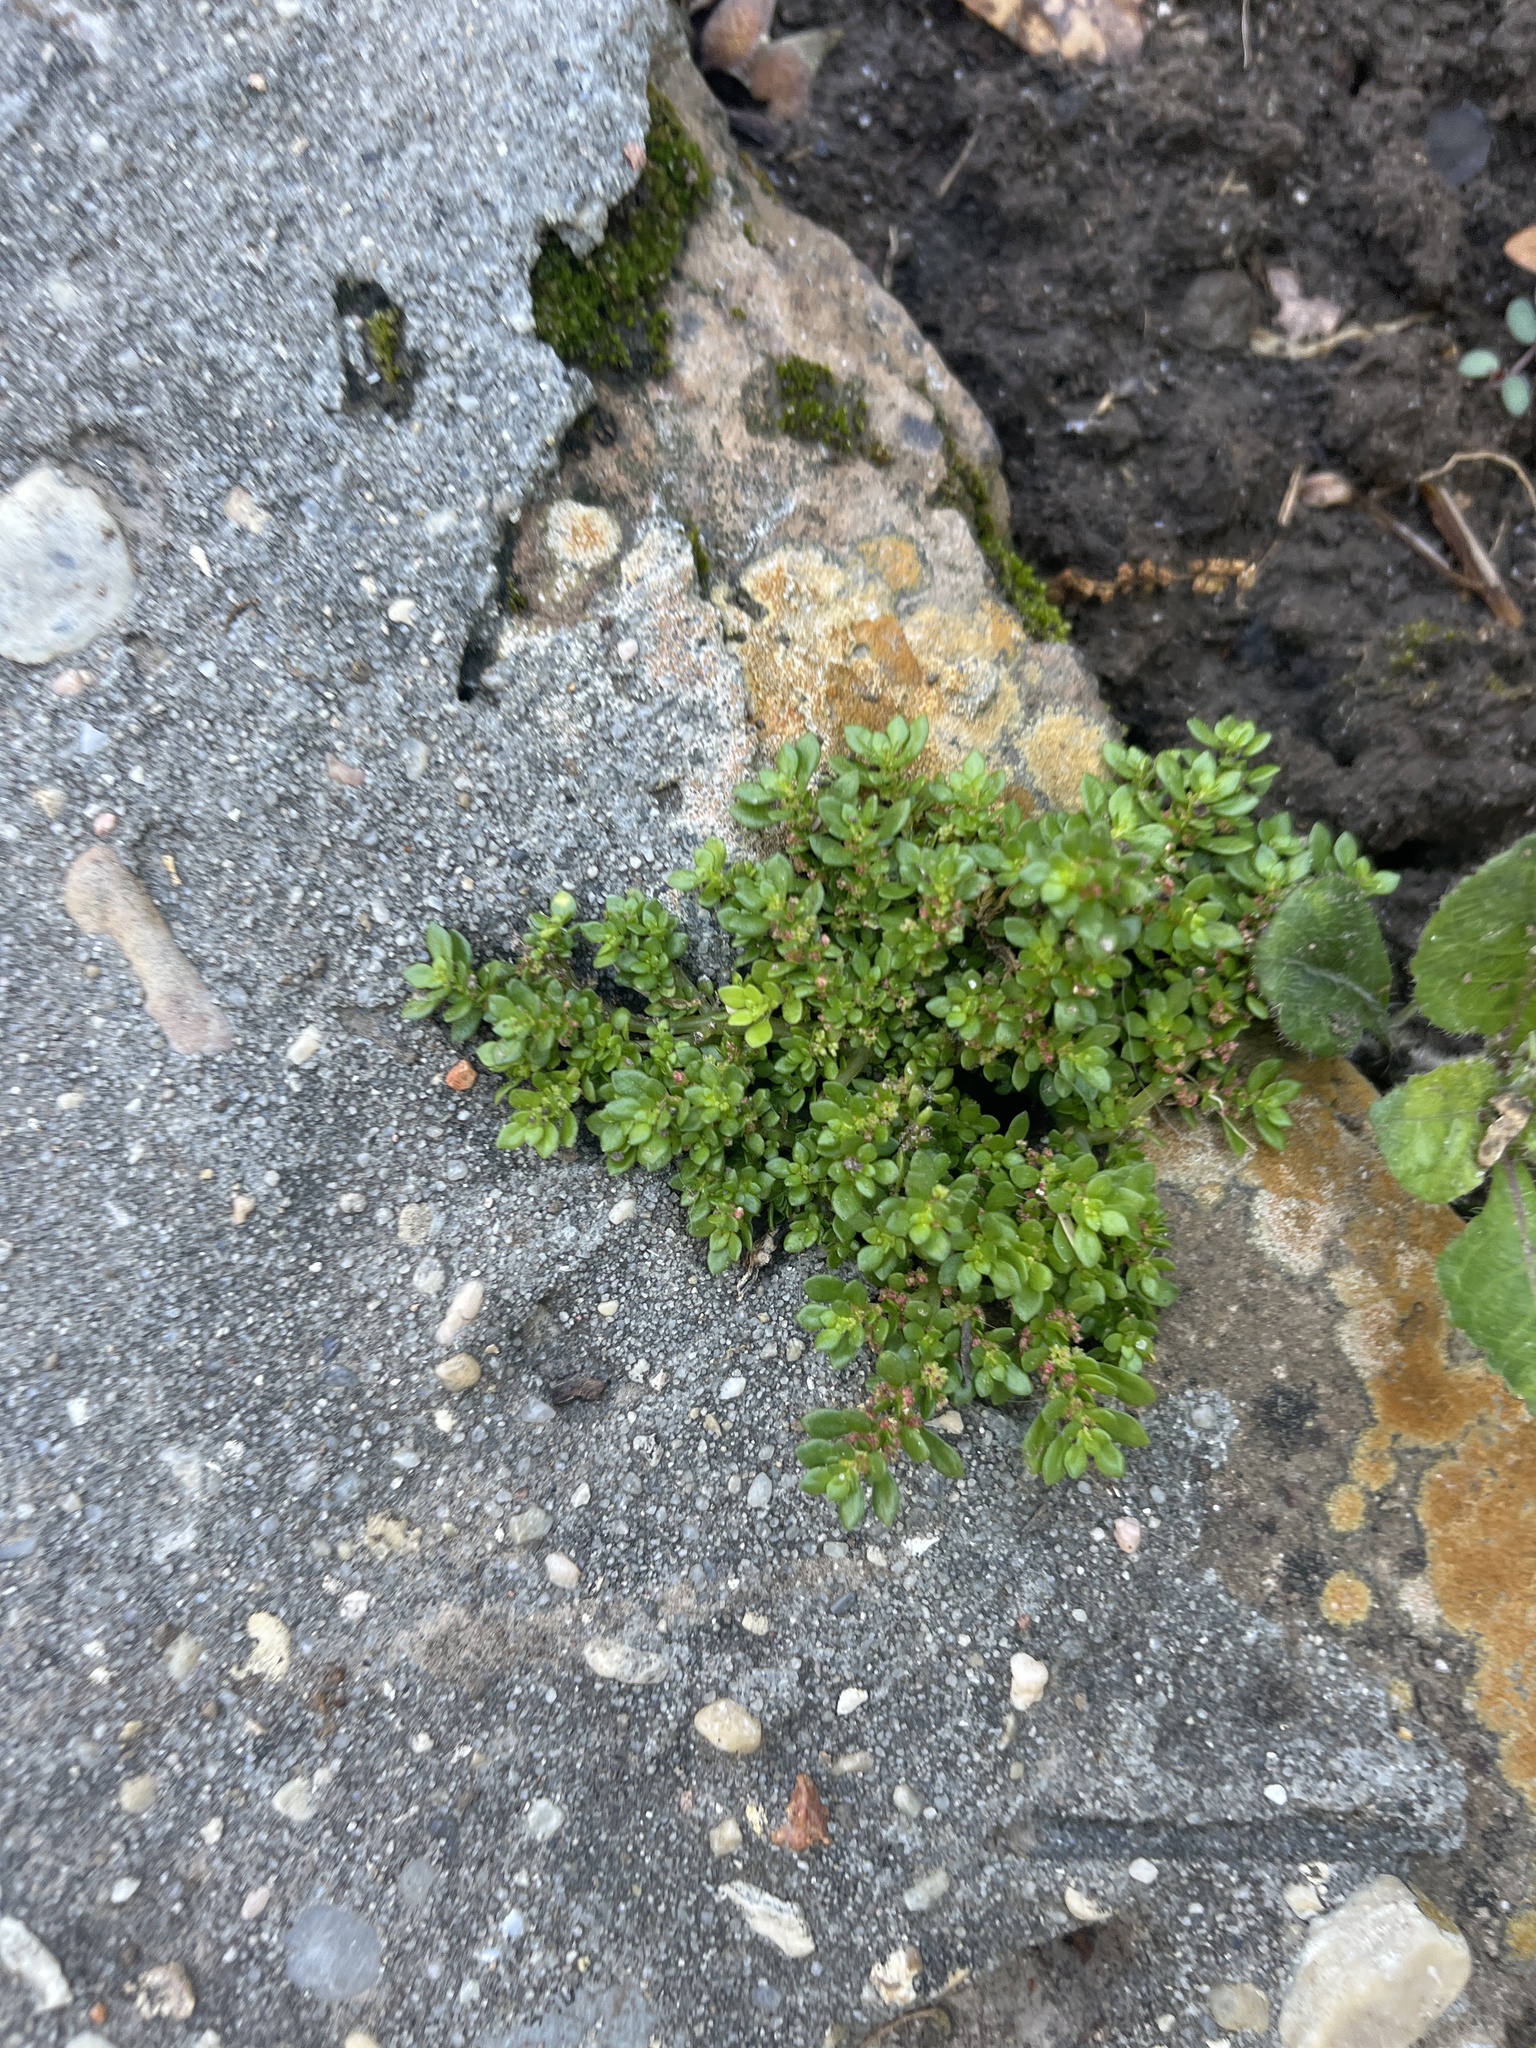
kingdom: Plantae
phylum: Tracheophyta
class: Magnoliopsida
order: Rosales
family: Urticaceae
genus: Pilea
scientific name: Pilea microphylla
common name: Artillery-plant
